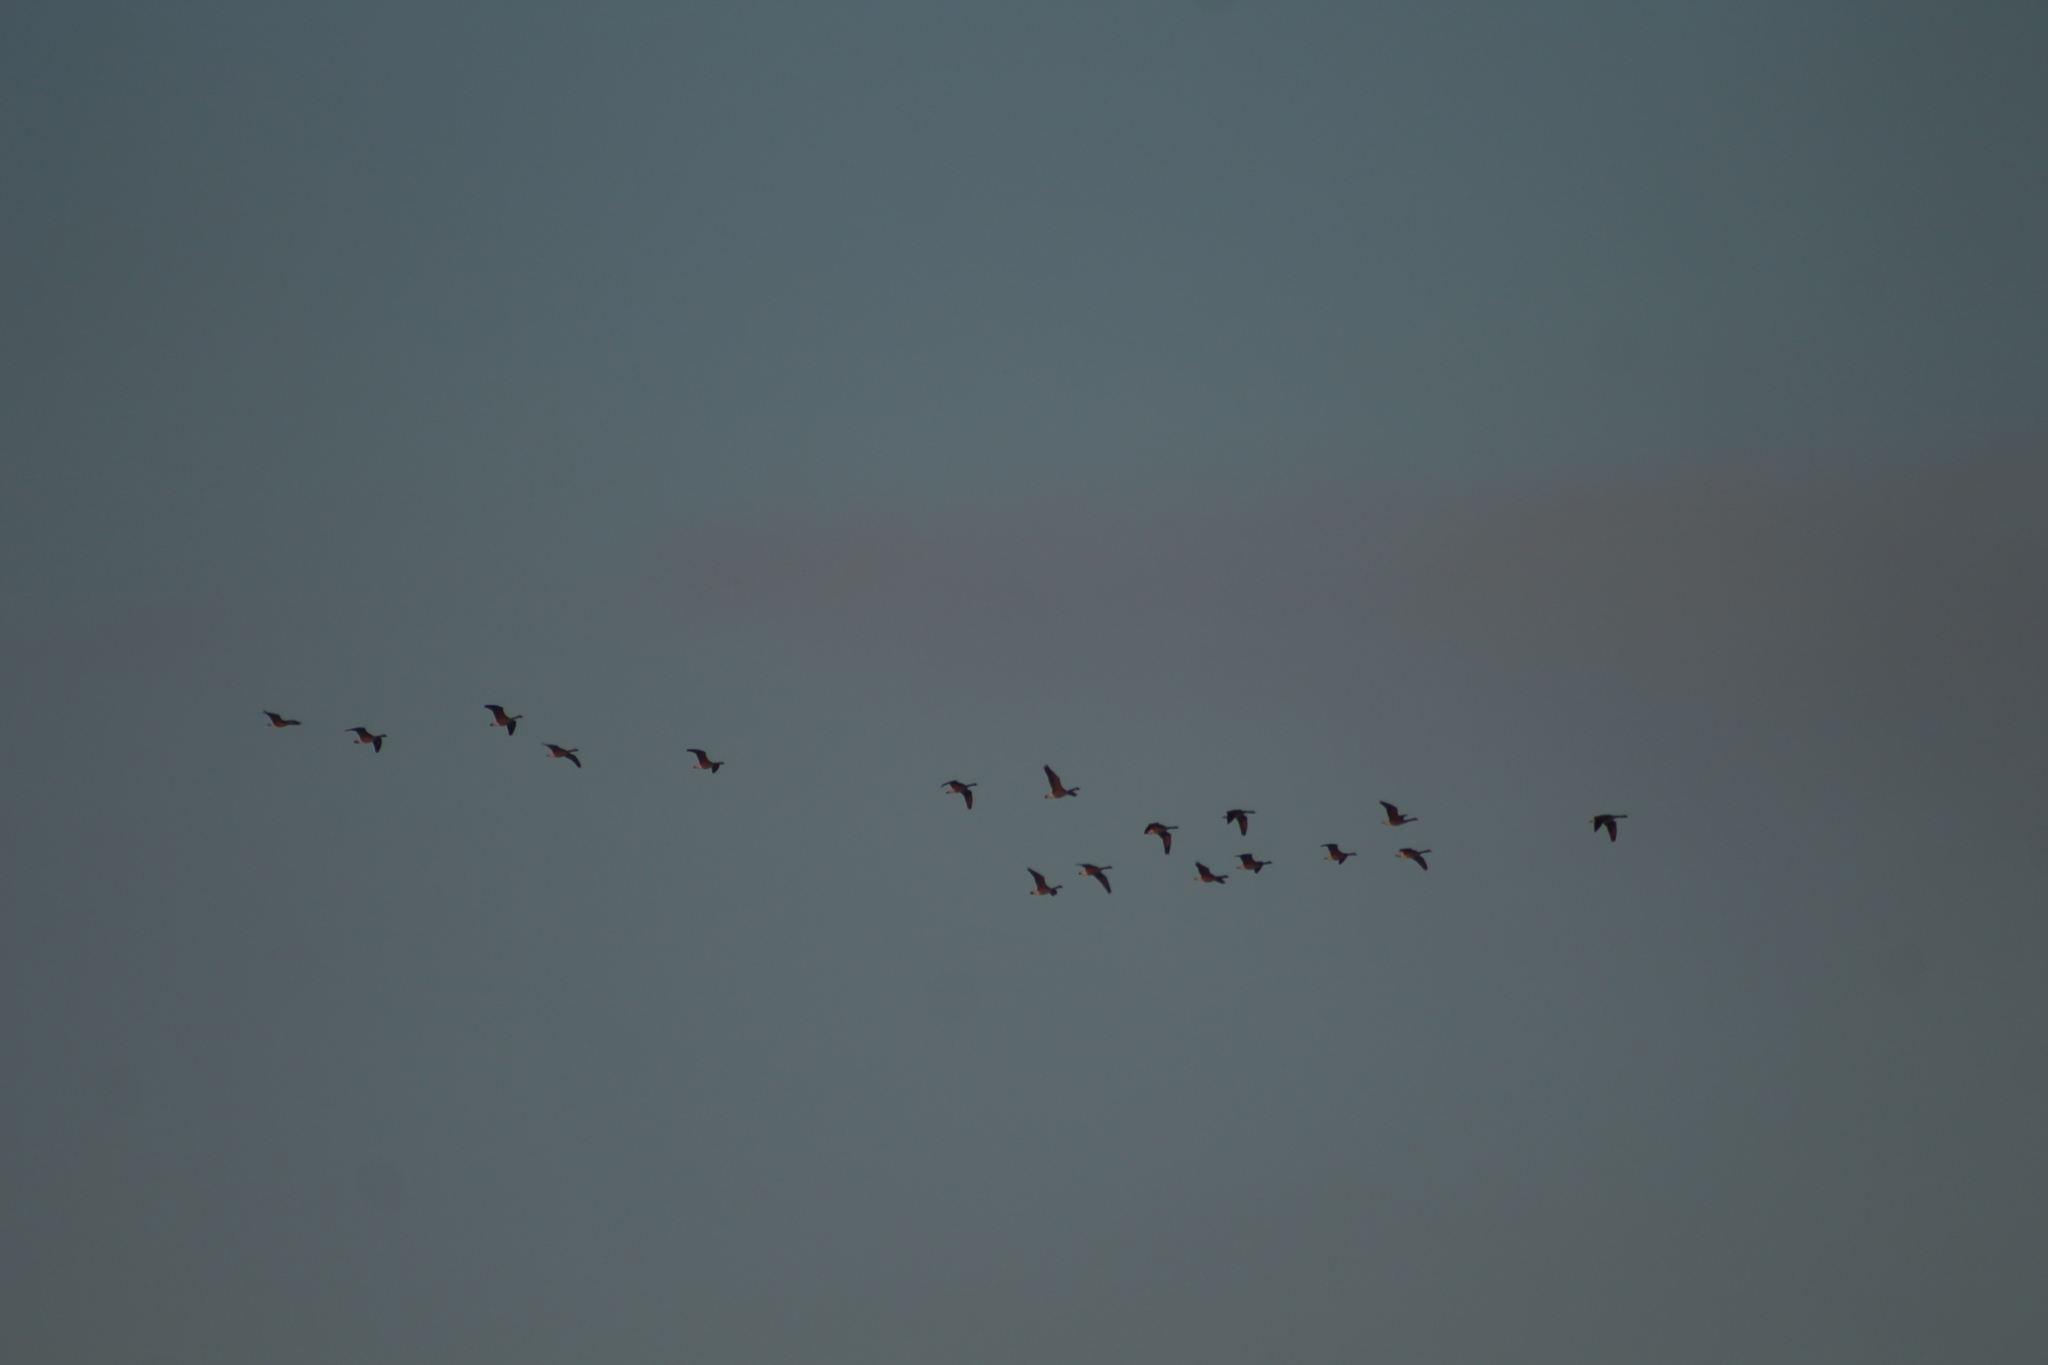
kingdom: Animalia
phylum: Chordata
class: Aves
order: Anseriformes
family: Anatidae
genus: Branta
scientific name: Branta canadensis
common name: Canada goose
